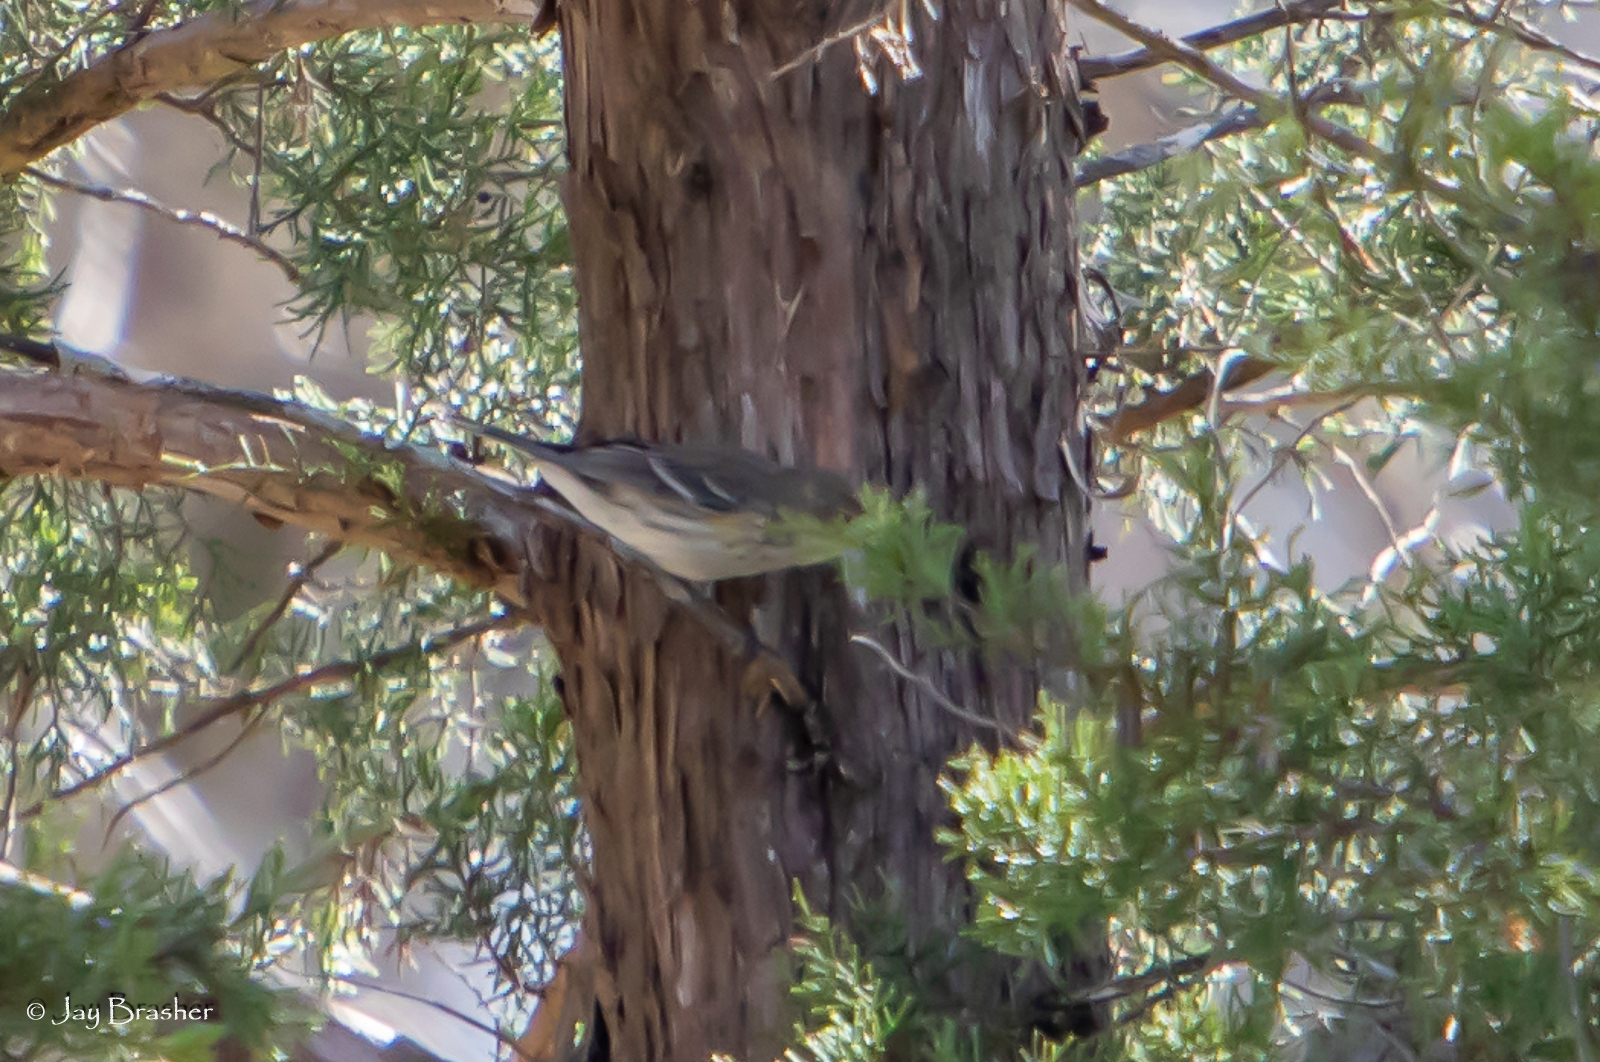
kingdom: Animalia
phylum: Chordata
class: Aves
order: Passeriformes
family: Parulidae
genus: Setophaga
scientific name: Setophaga coronata
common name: Myrtle warbler
